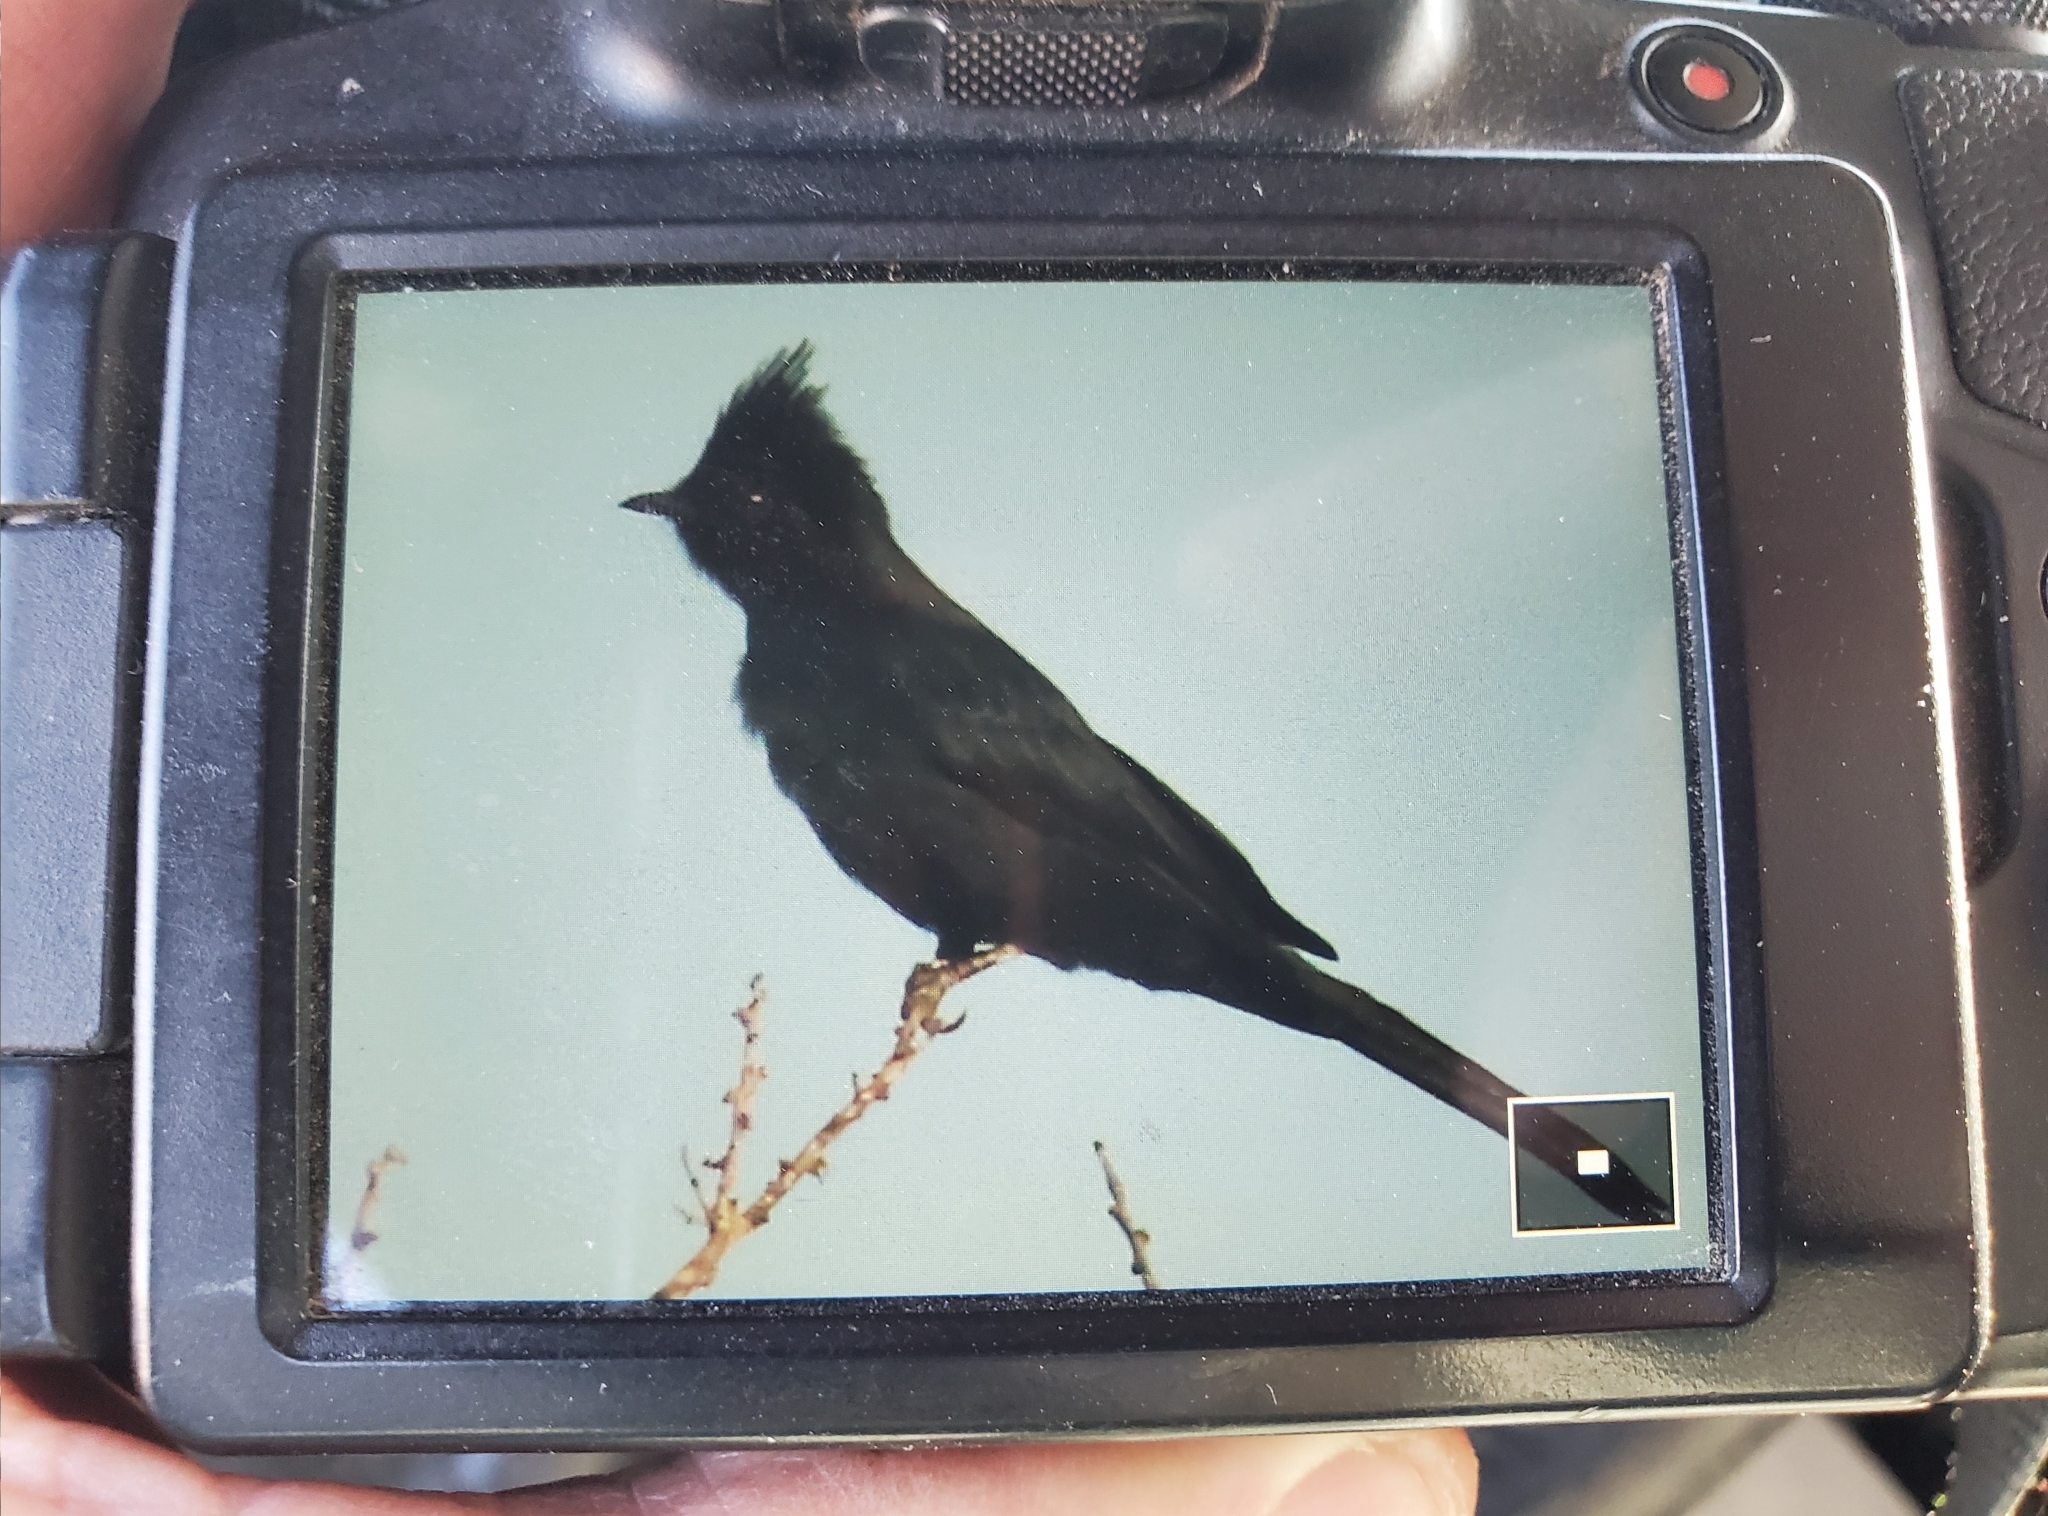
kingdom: Animalia
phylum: Chordata
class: Aves
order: Passeriformes
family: Ptilogonatidae
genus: Phainopepla
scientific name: Phainopepla nitens
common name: Phainopepla
